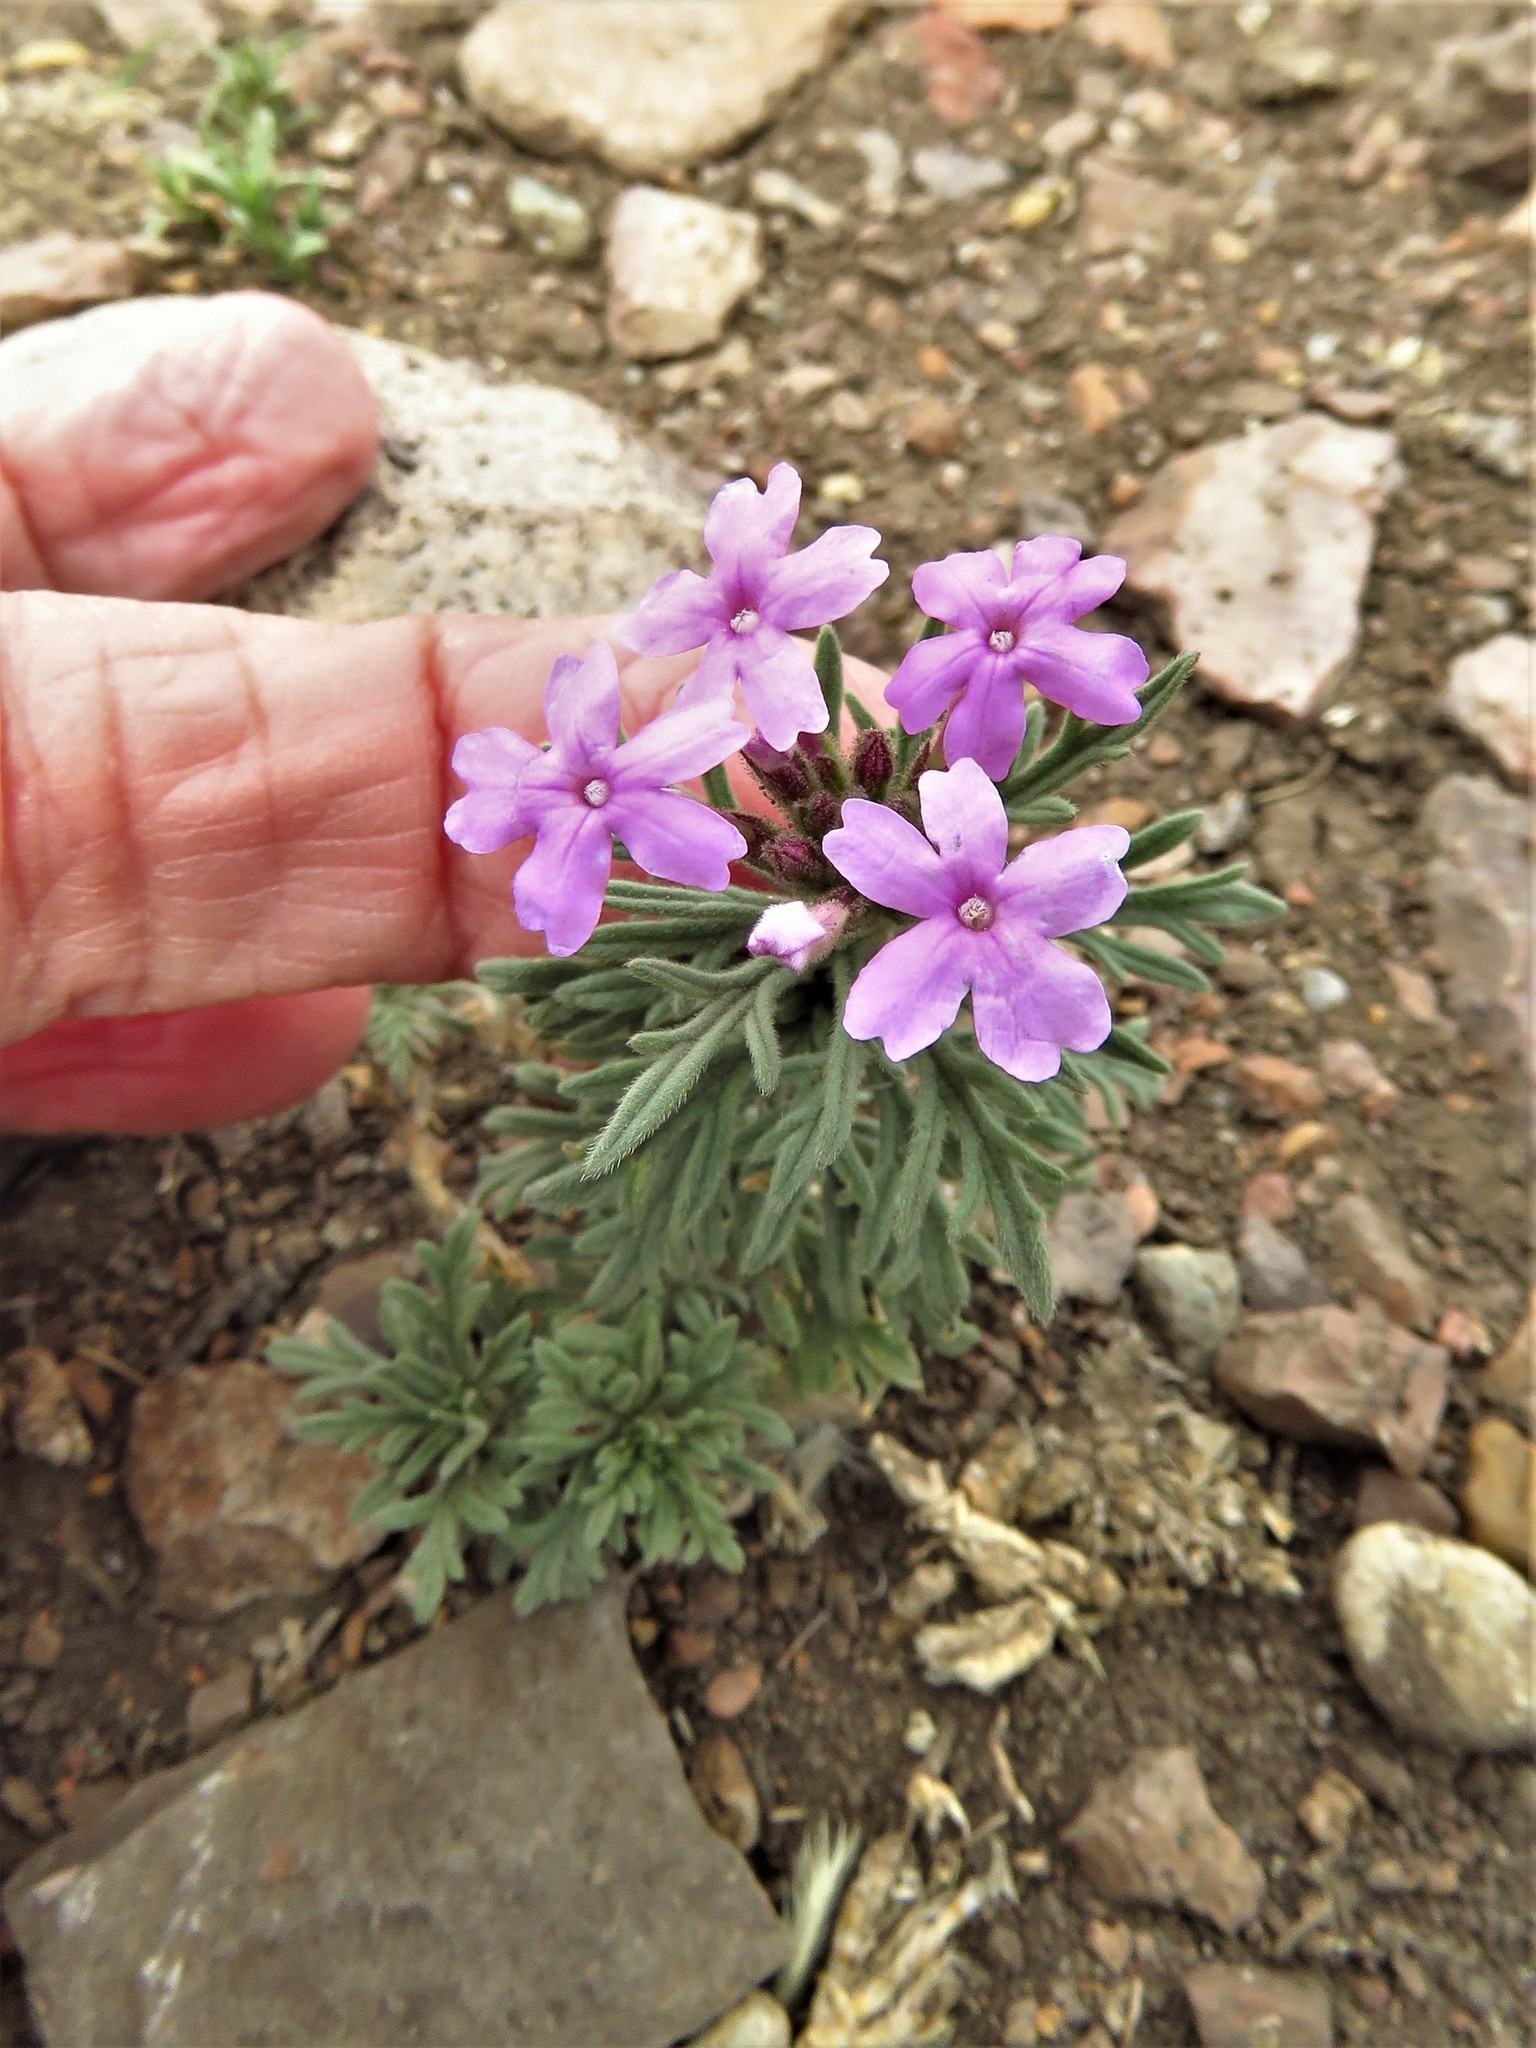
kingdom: Plantae
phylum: Tracheophyta
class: Magnoliopsida
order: Lamiales
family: Verbenaceae
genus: Verbena
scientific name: Verbena bipinnatifida
